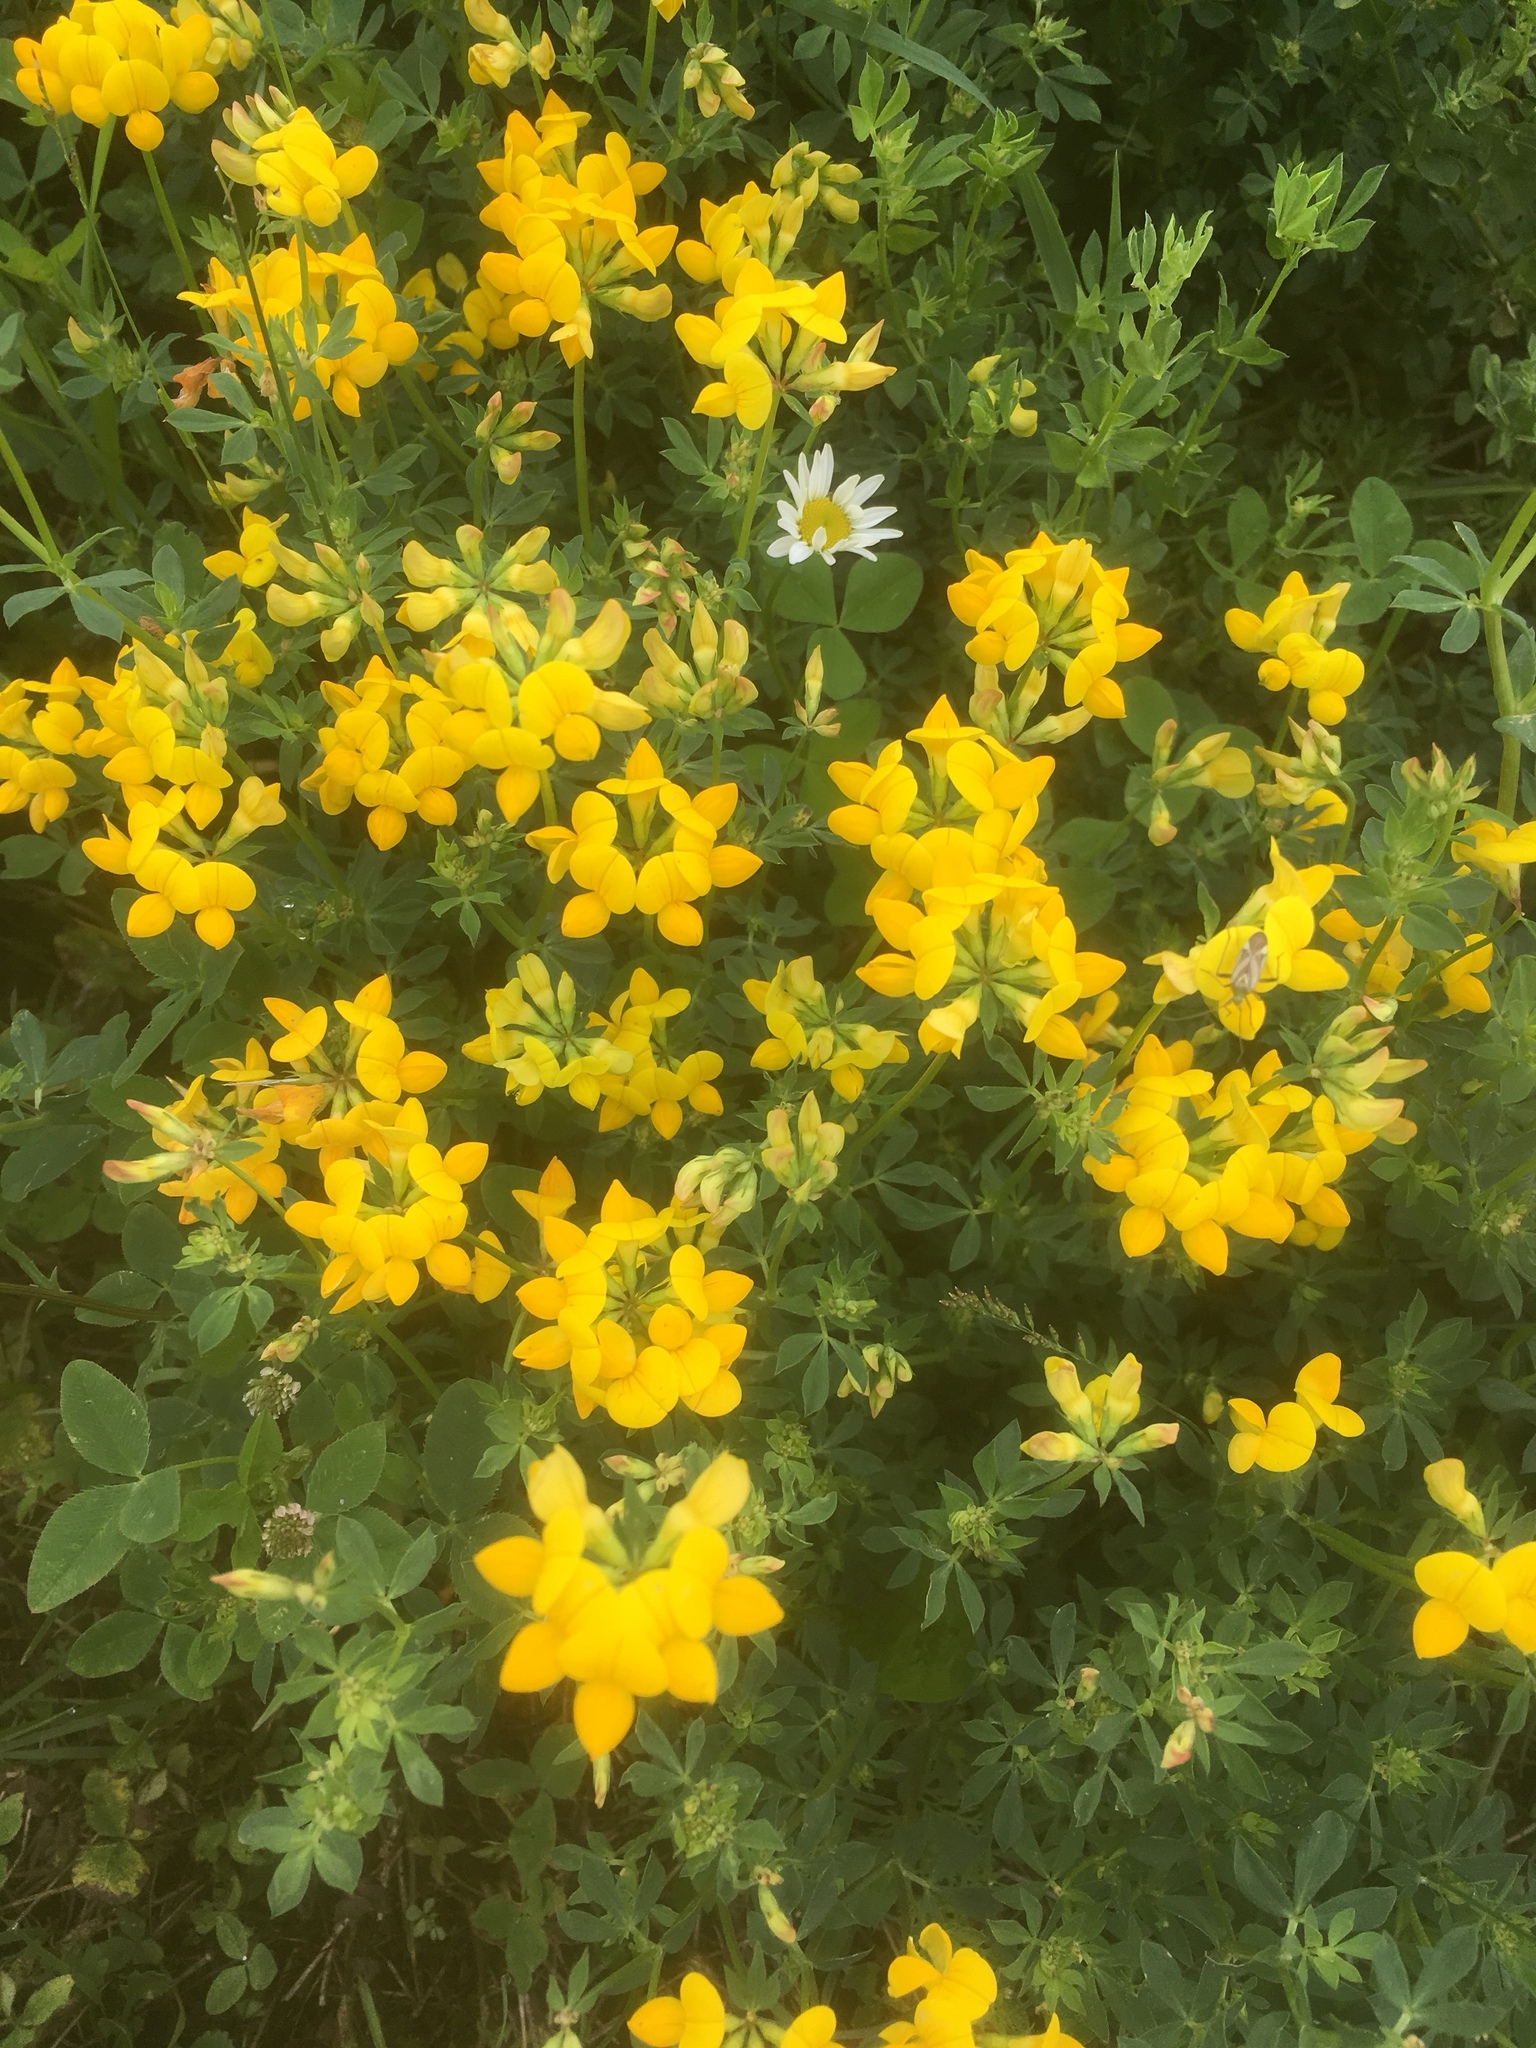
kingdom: Plantae
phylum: Tracheophyta
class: Magnoliopsida
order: Fabales
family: Fabaceae
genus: Lotus
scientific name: Lotus corniculatus
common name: Common bird's-foot-trefoil
